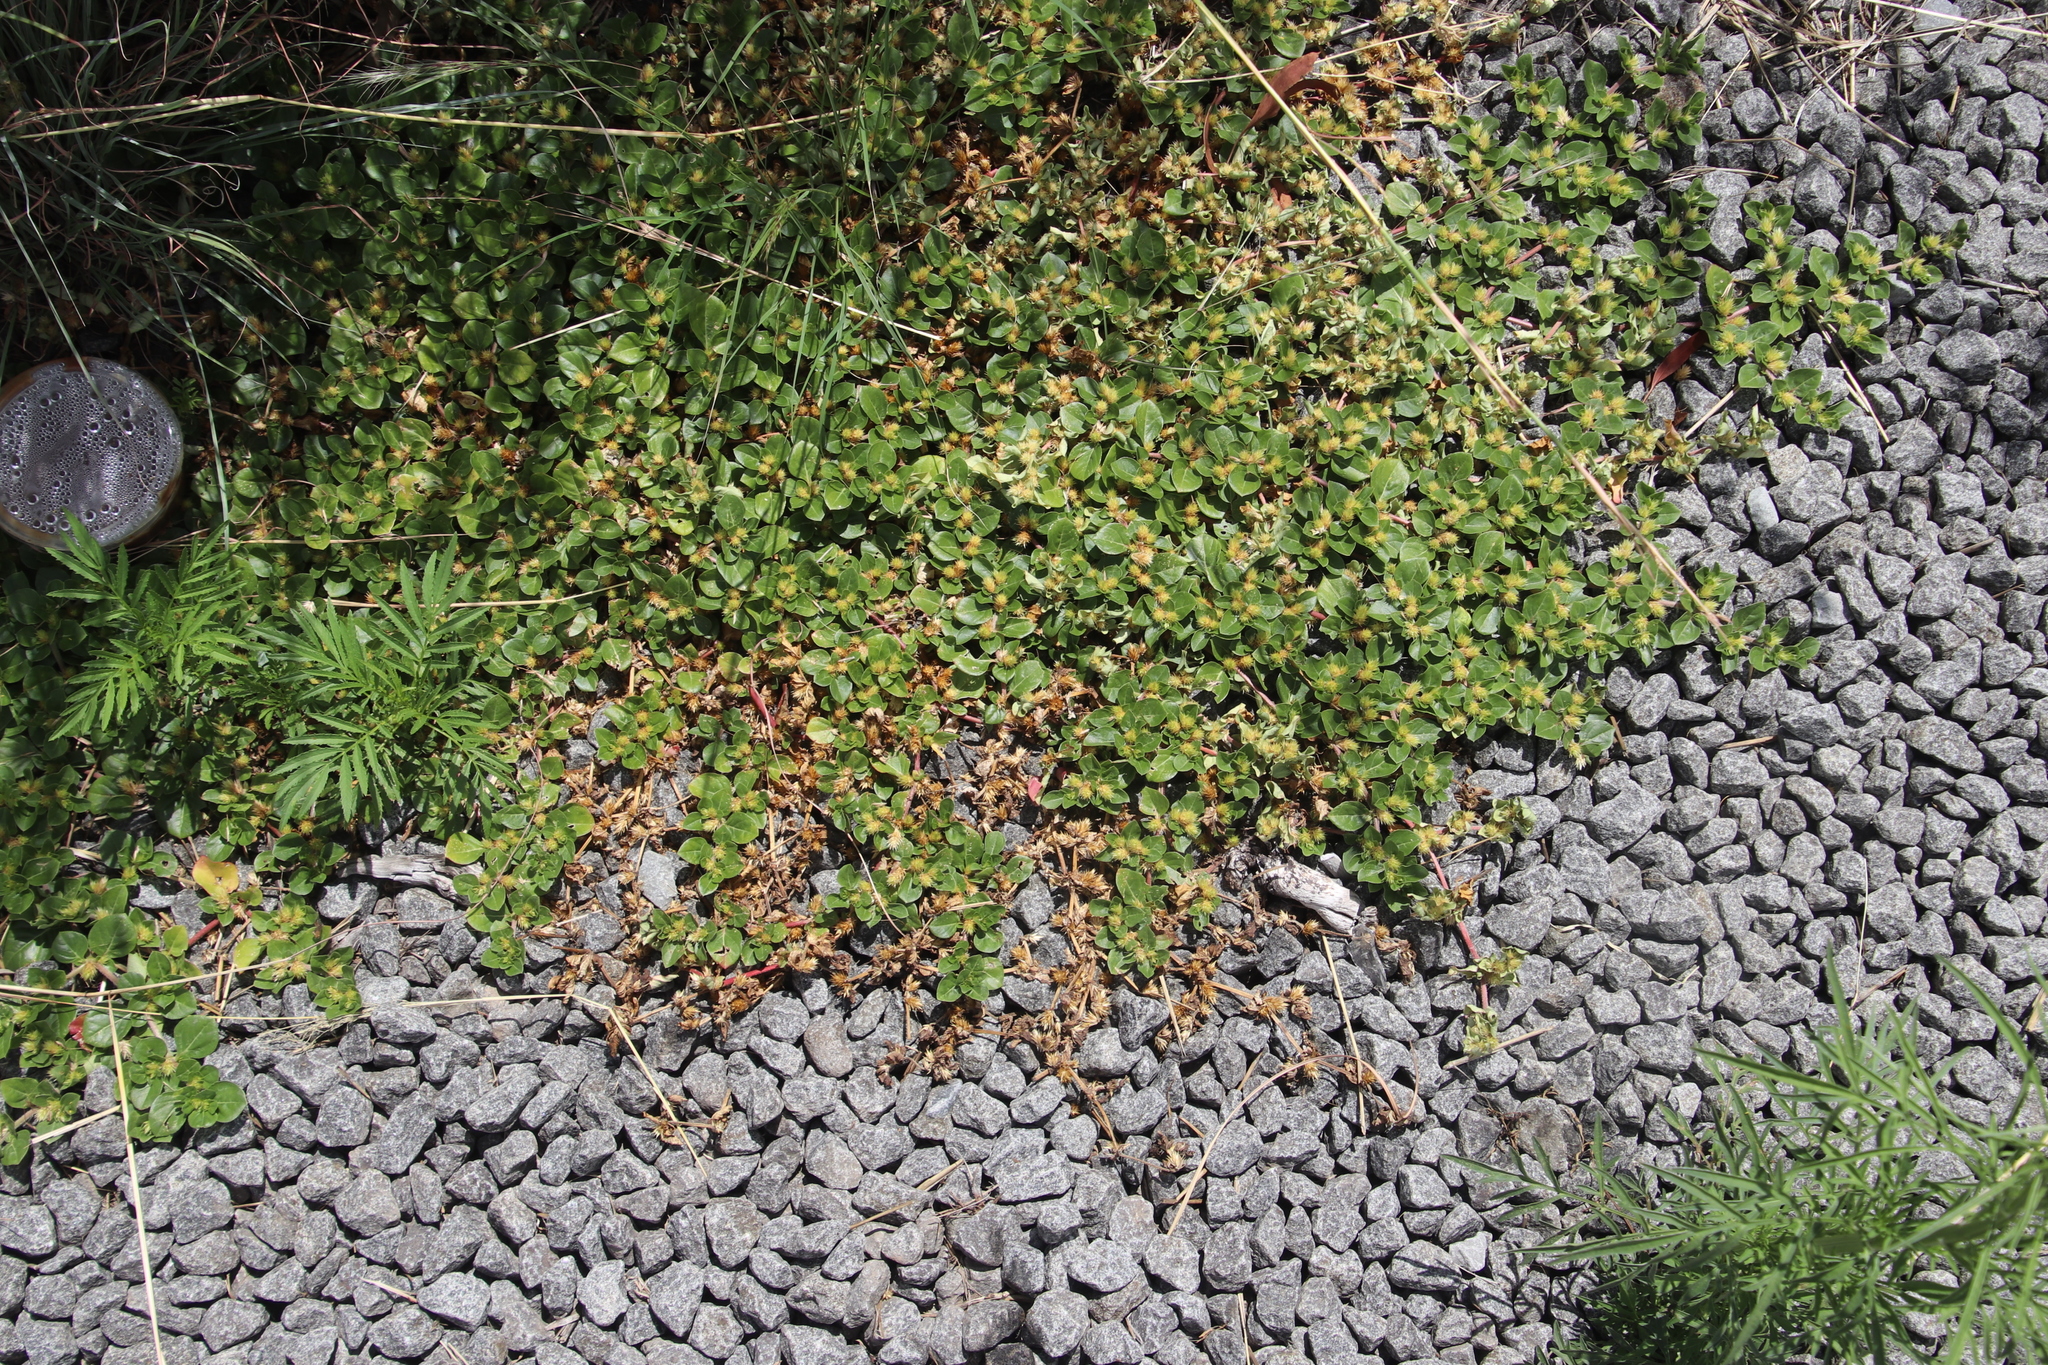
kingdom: Plantae
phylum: Tracheophyta
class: Magnoliopsida
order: Caryophyllales
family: Amaranthaceae
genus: Alternanthera
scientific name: Alternanthera pungens
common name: Khakiweed
